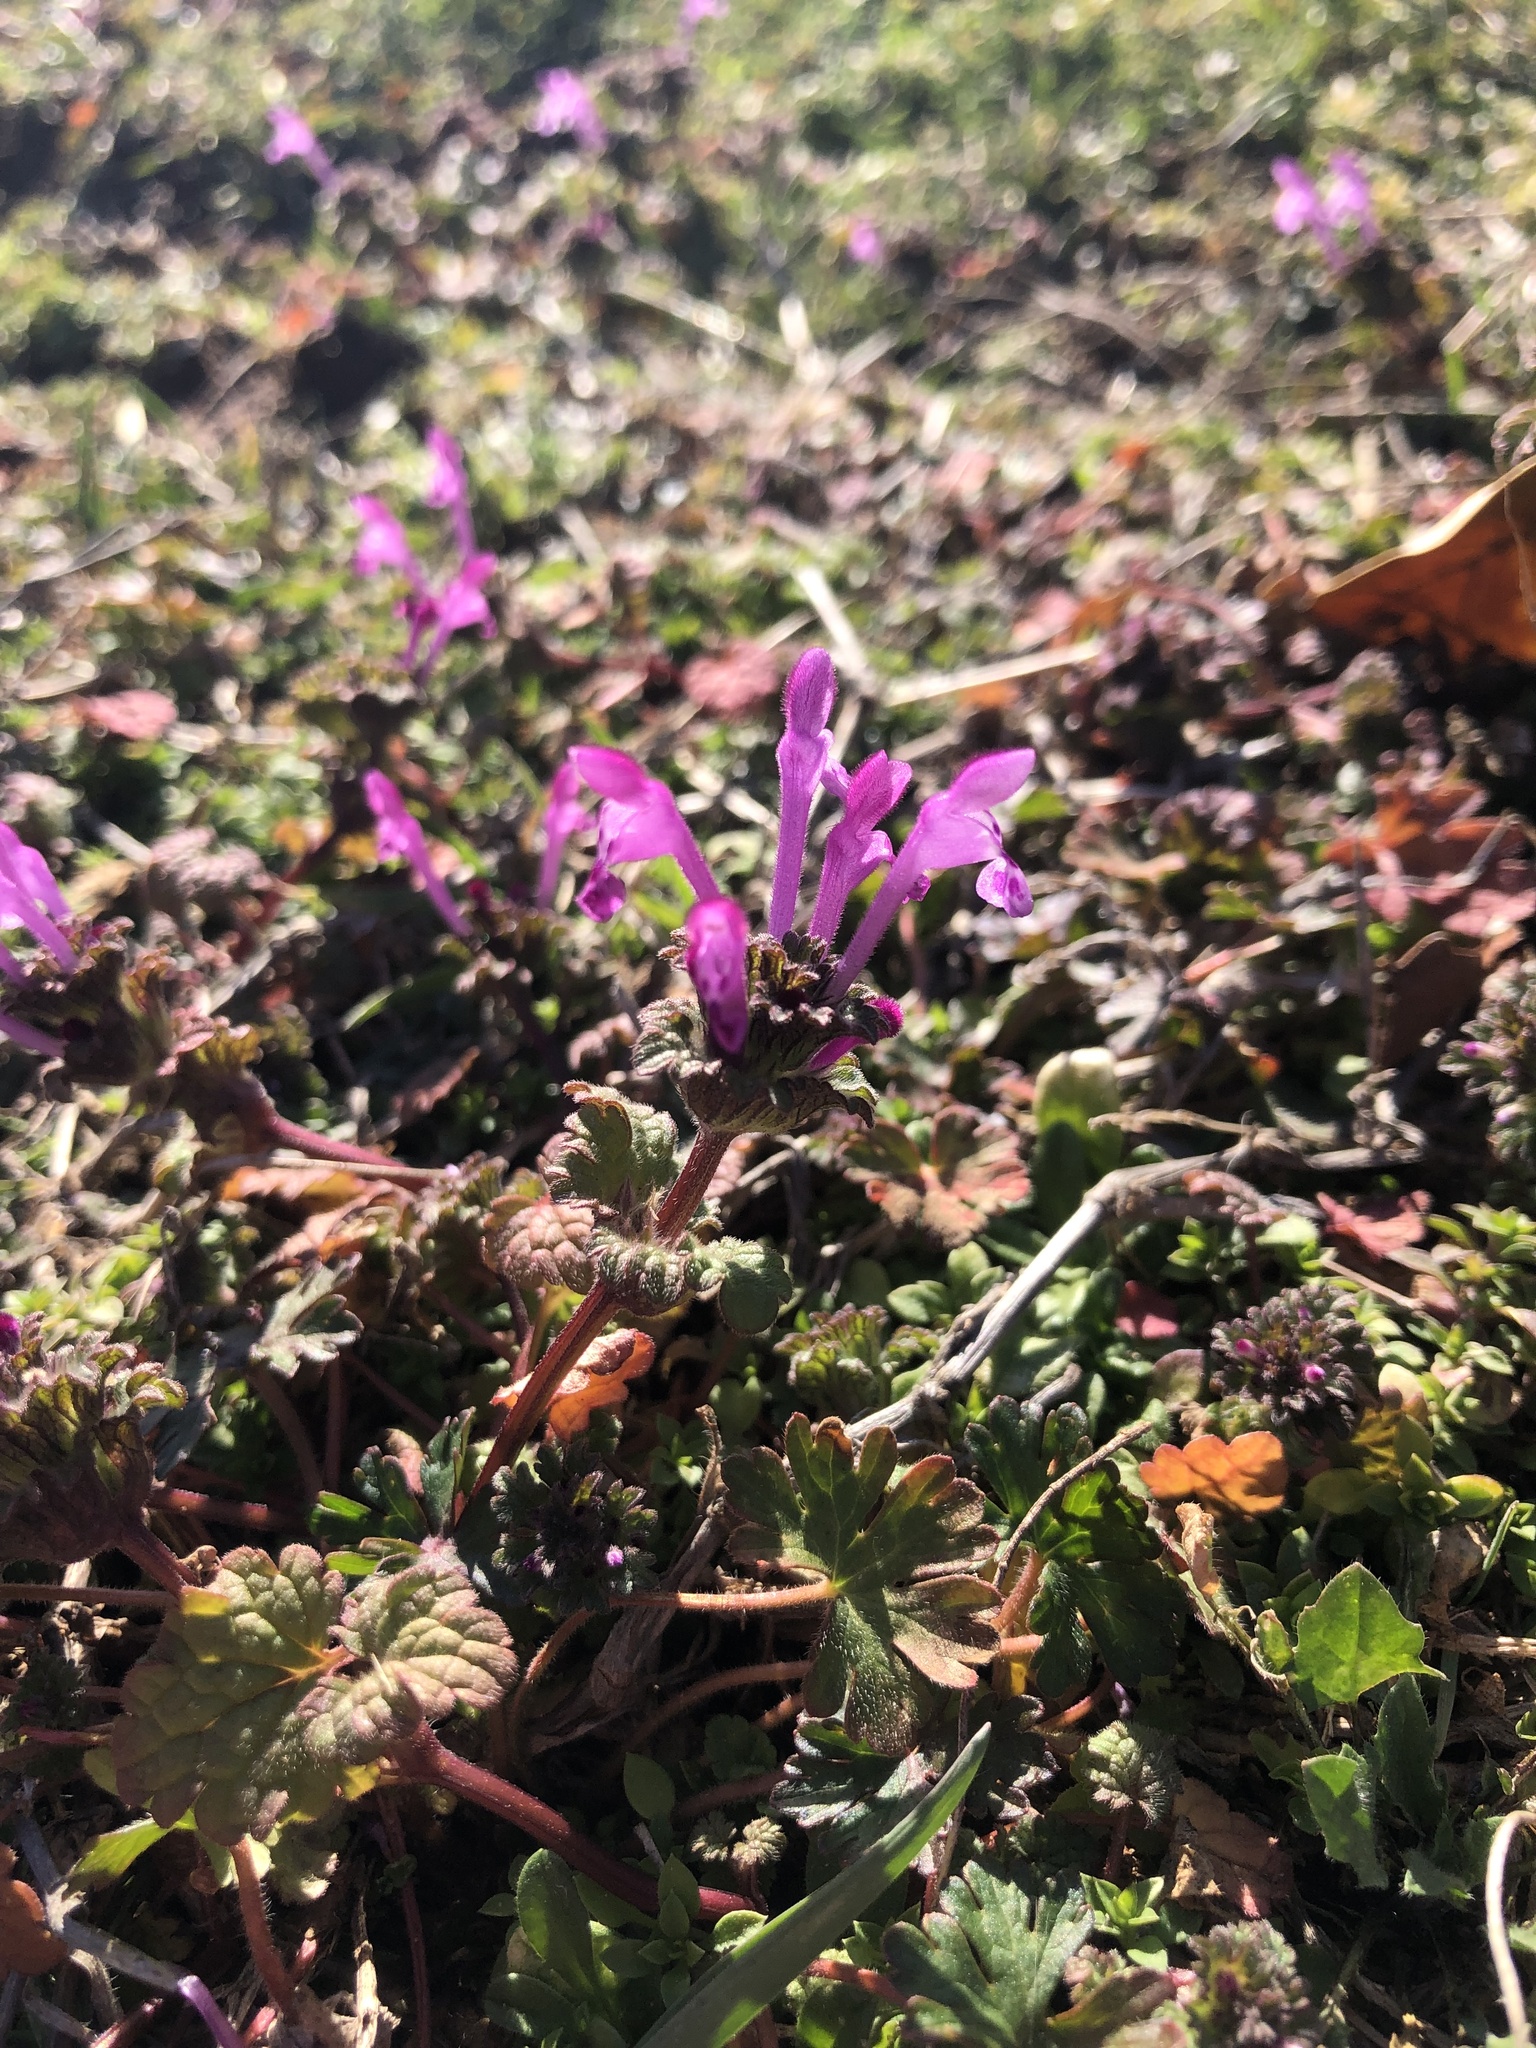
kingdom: Plantae
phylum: Tracheophyta
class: Magnoliopsida
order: Lamiales
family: Lamiaceae
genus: Lamium
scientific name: Lamium amplexicaule
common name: Henbit dead-nettle
